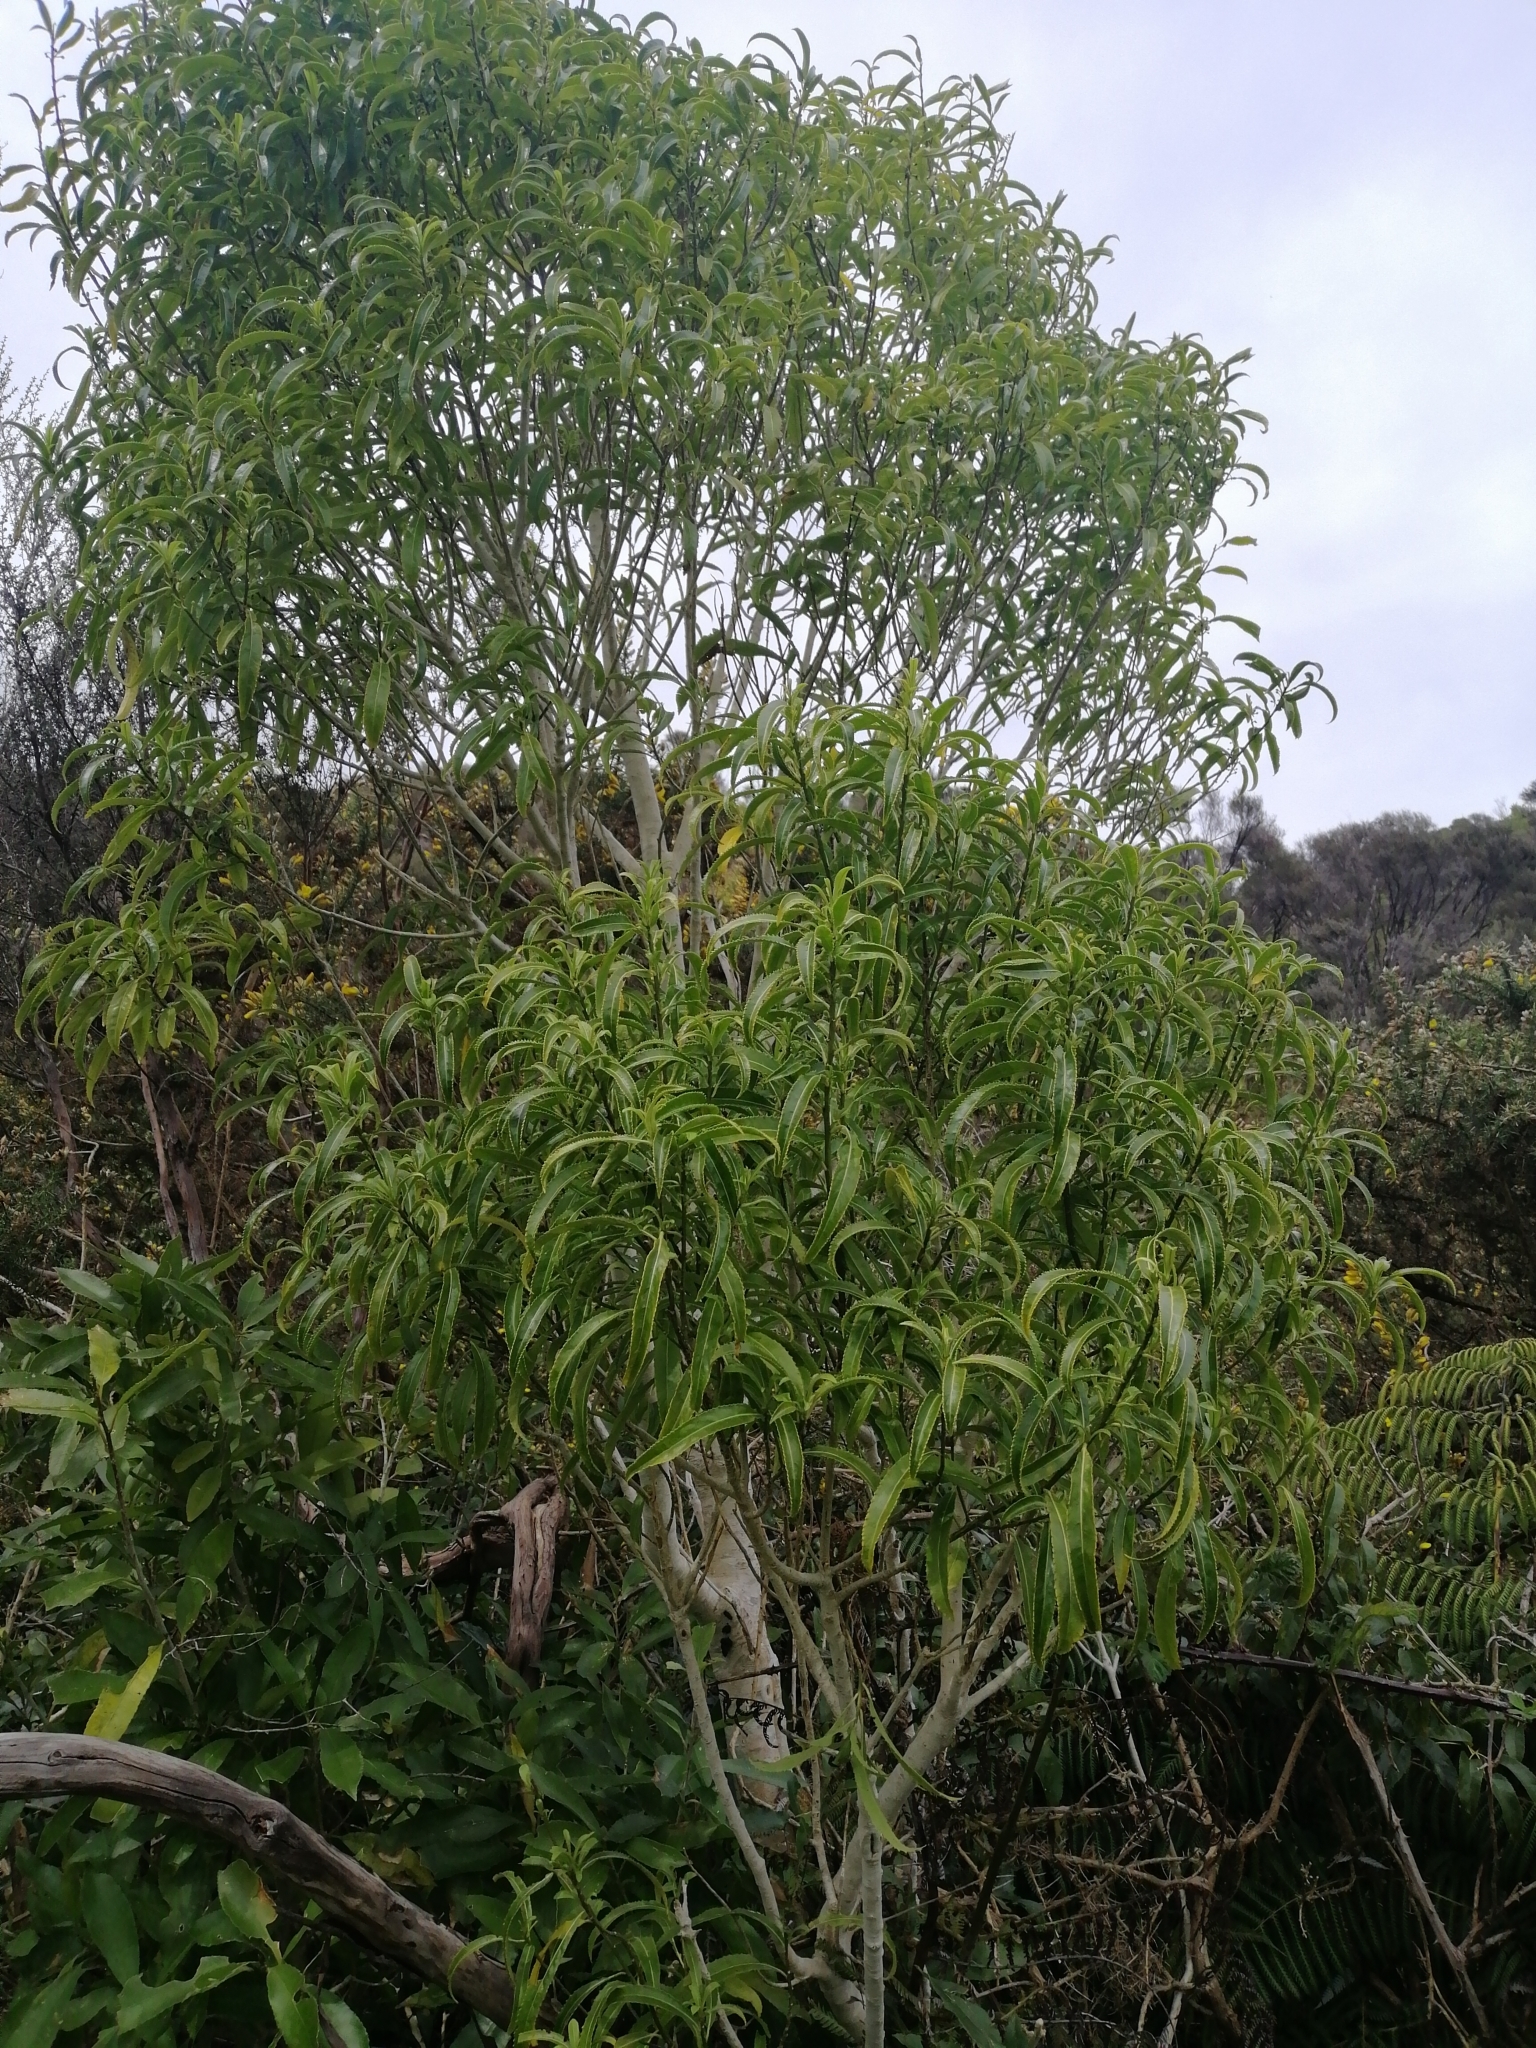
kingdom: Plantae
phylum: Tracheophyta
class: Magnoliopsida
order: Malpighiales
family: Violaceae
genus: Melicytus
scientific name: Melicytus lanceolatus
